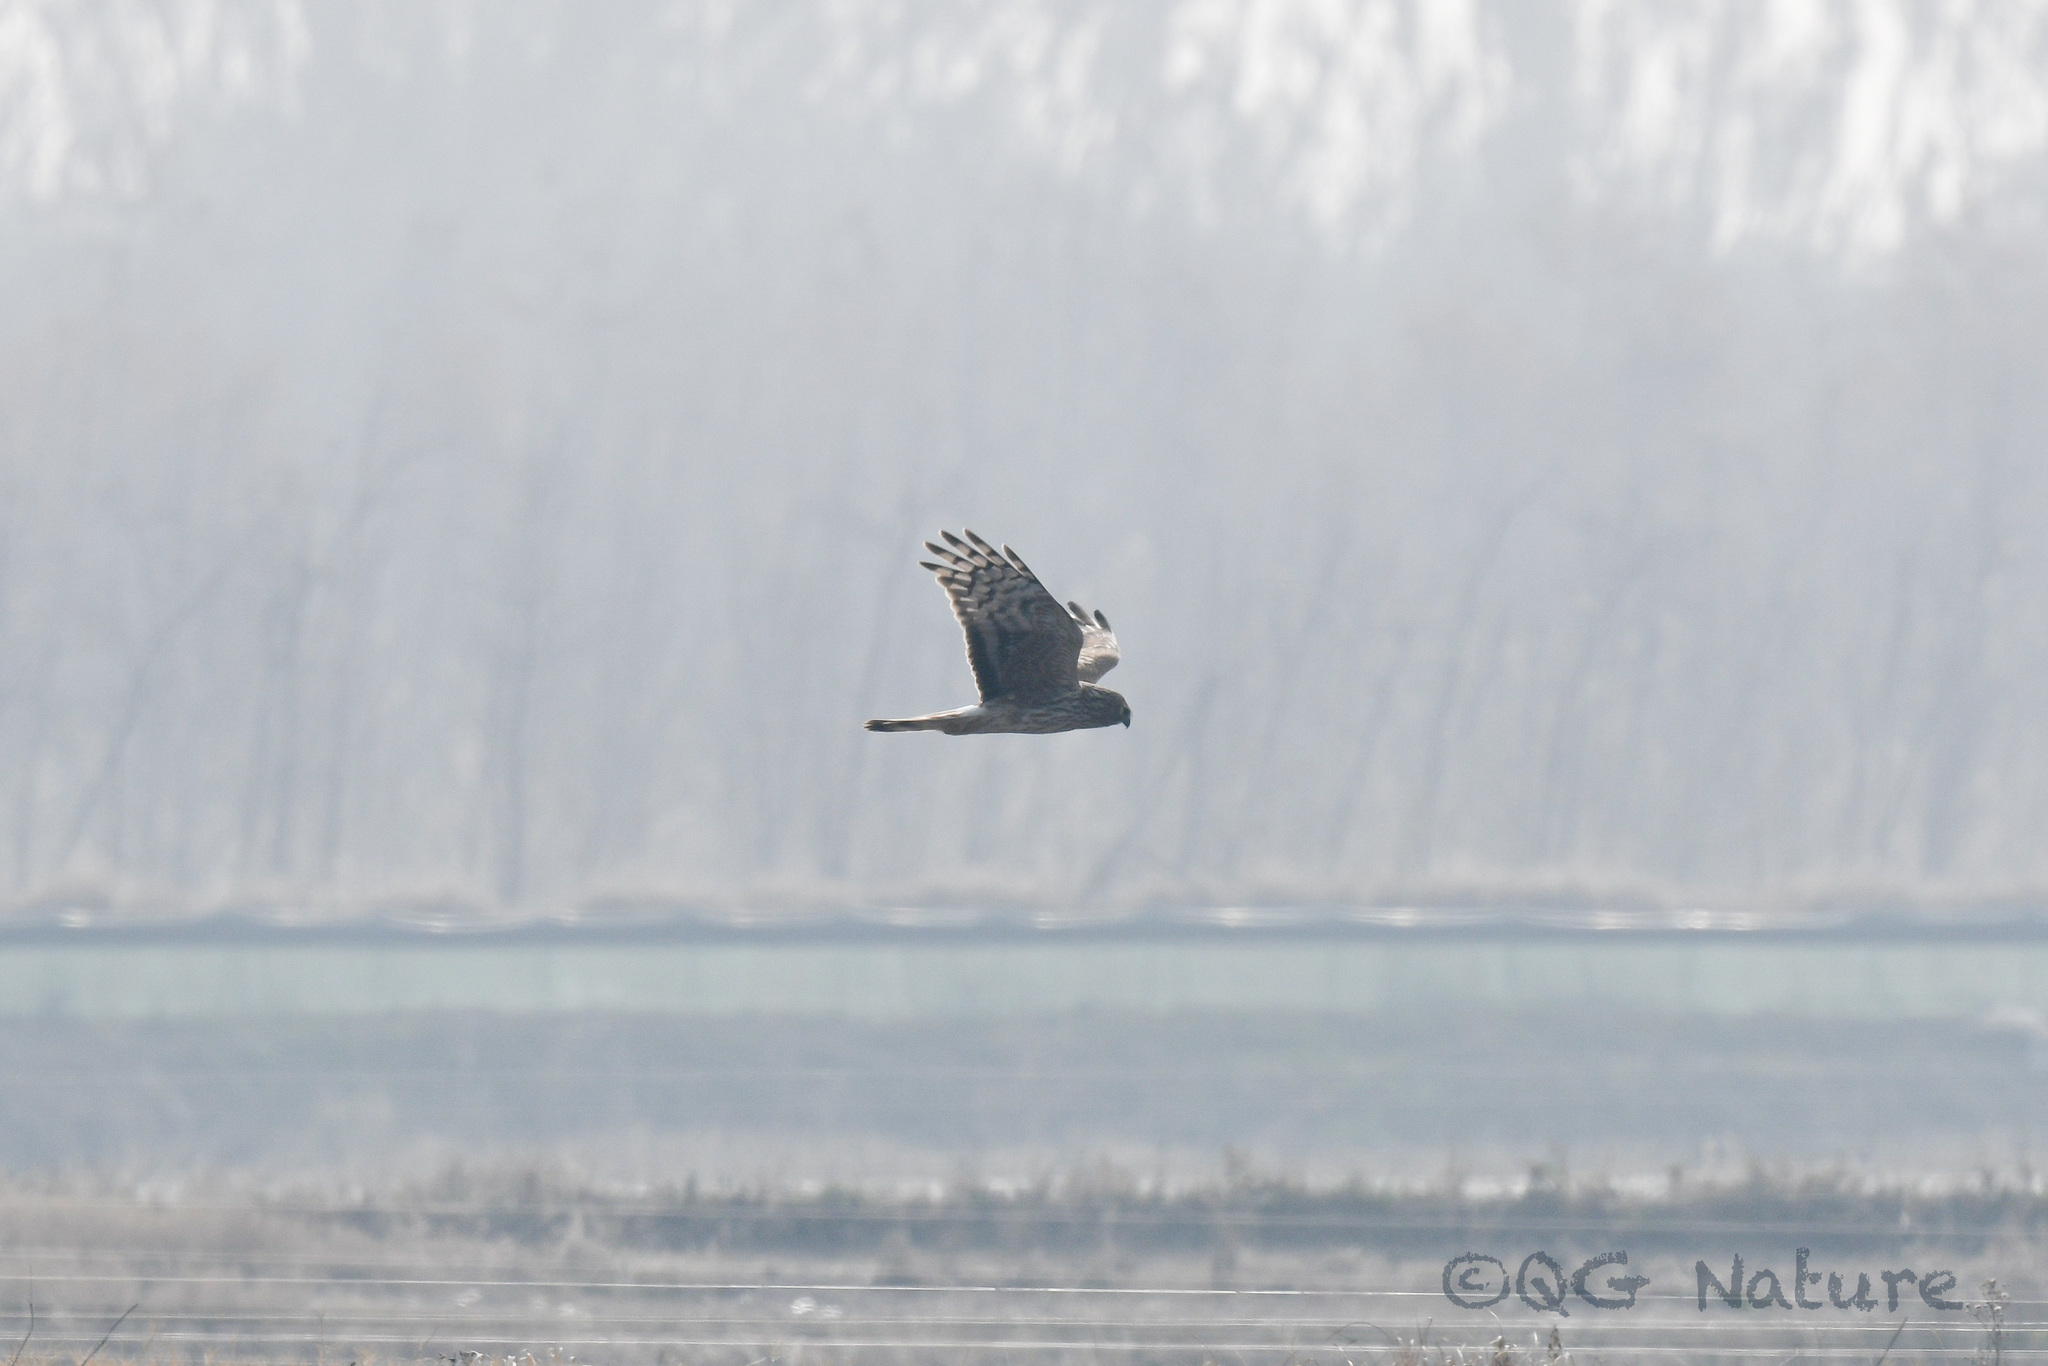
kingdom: Animalia
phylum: Chordata
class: Aves
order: Accipitriformes
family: Accipitridae
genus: Circus
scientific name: Circus cyaneus
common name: Hen harrier
